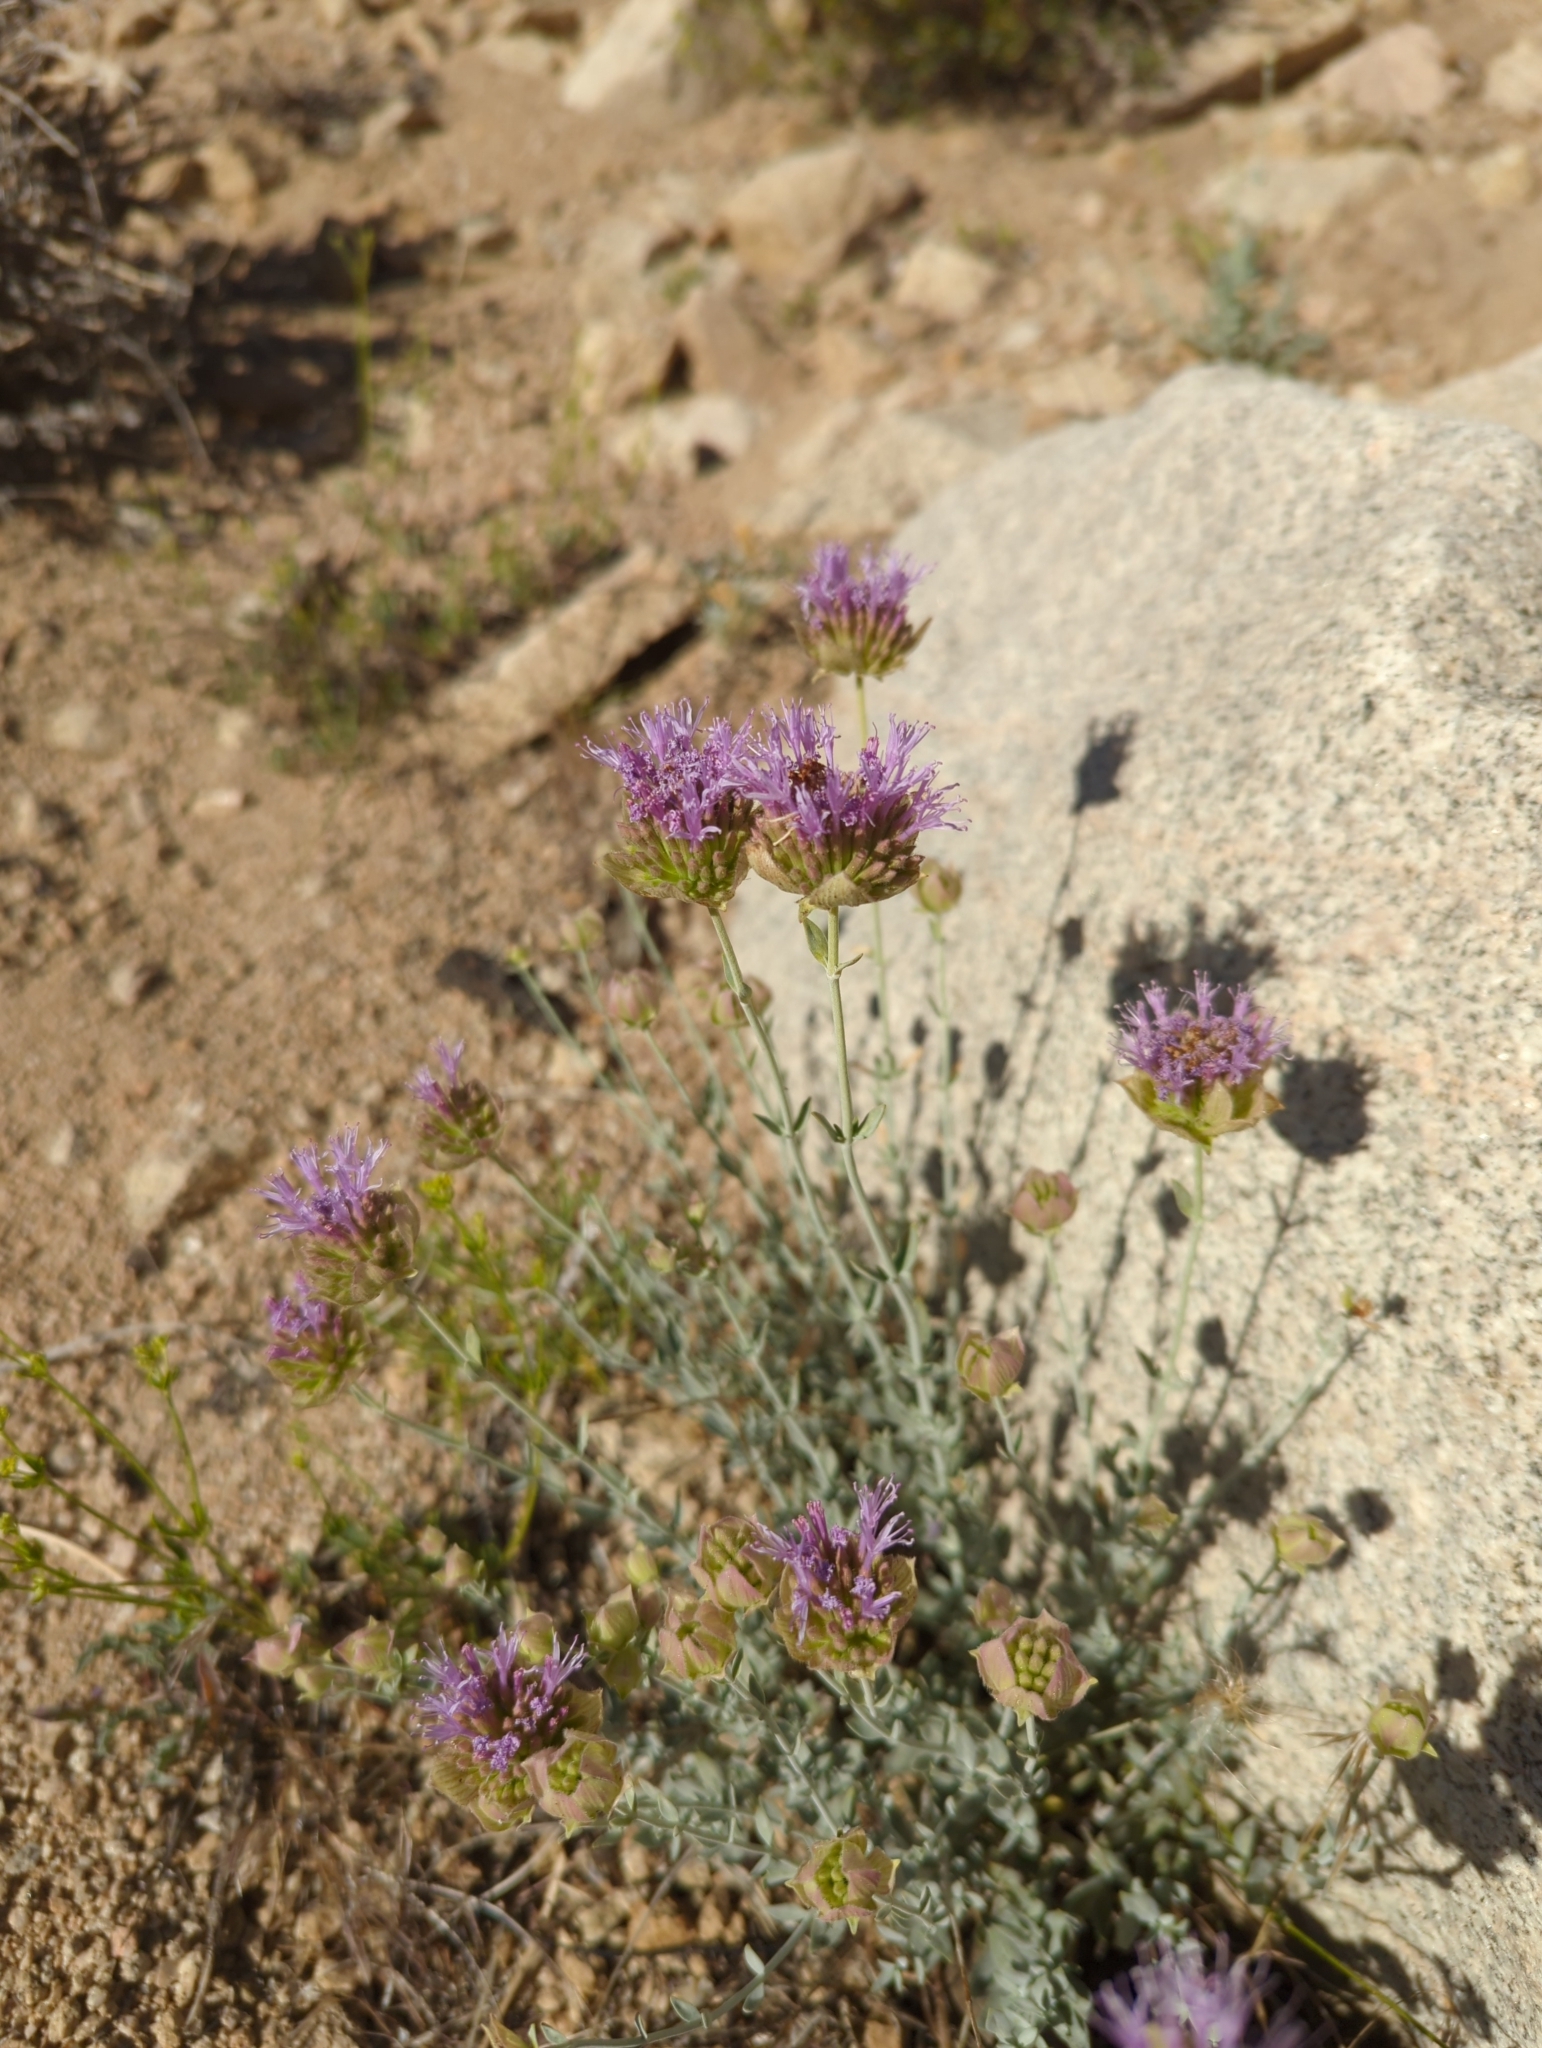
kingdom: Plantae
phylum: Tracheophyta
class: Magnoliopsida
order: Lamiales
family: Lamiaceae
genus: Monardella
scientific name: Monardella odoratissima
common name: Pacific monardella
